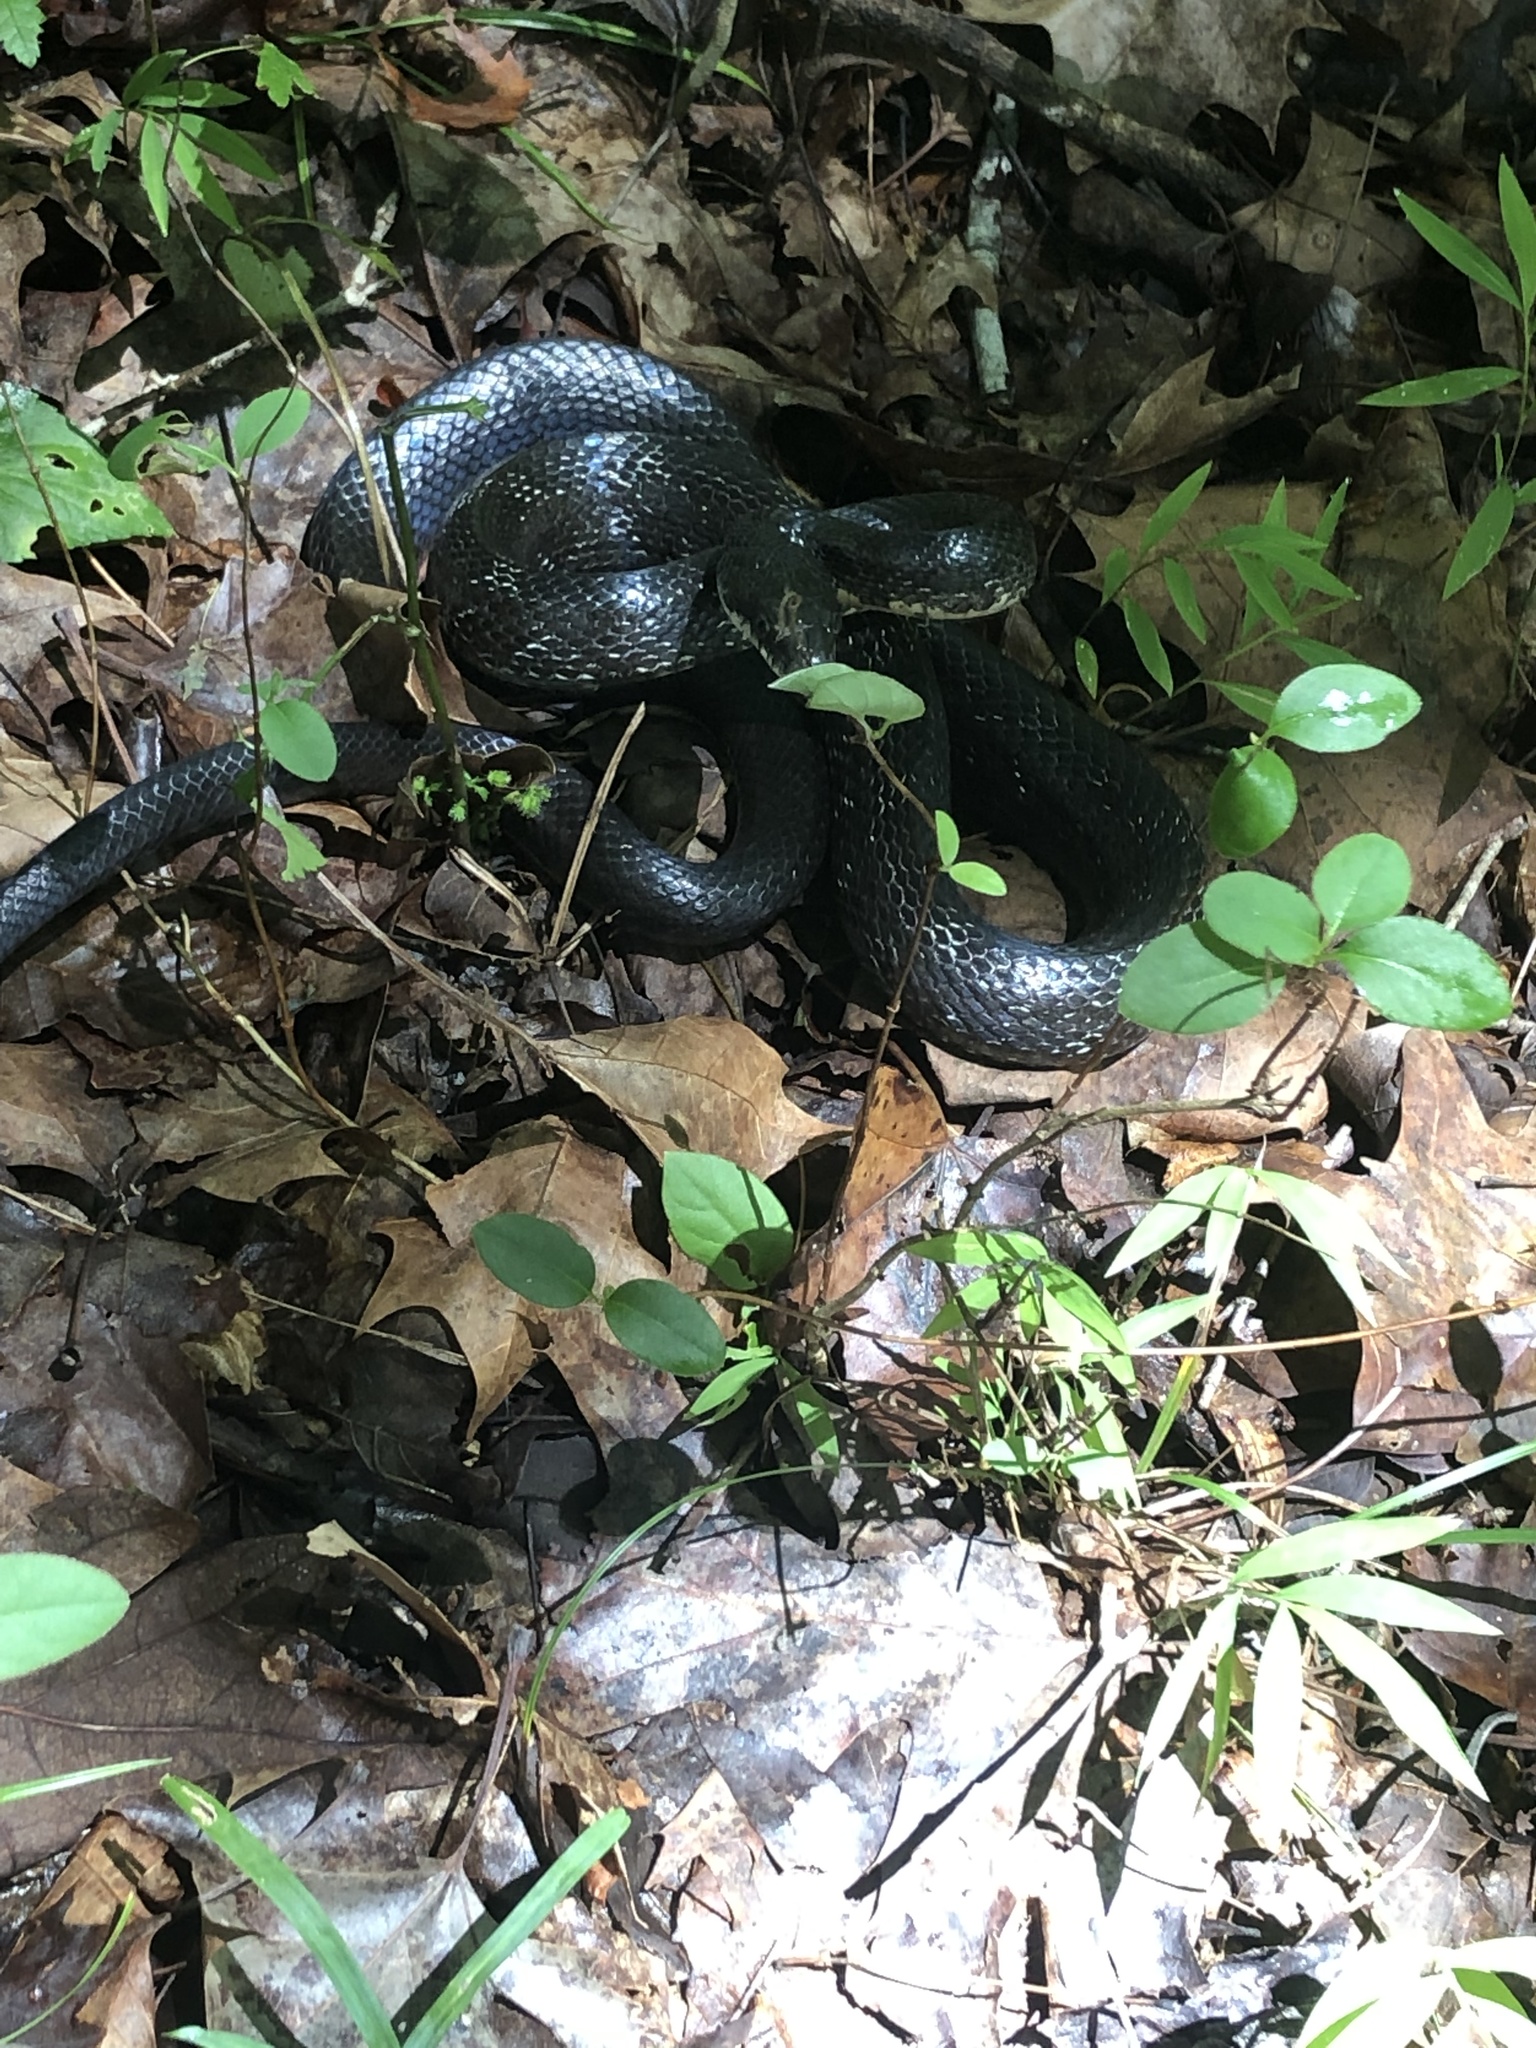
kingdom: Animalia
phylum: Chordata
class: Squamata
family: Colubridae
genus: Pantherophis
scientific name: Pantherophis alleghaniensis
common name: Eastern rat snake
